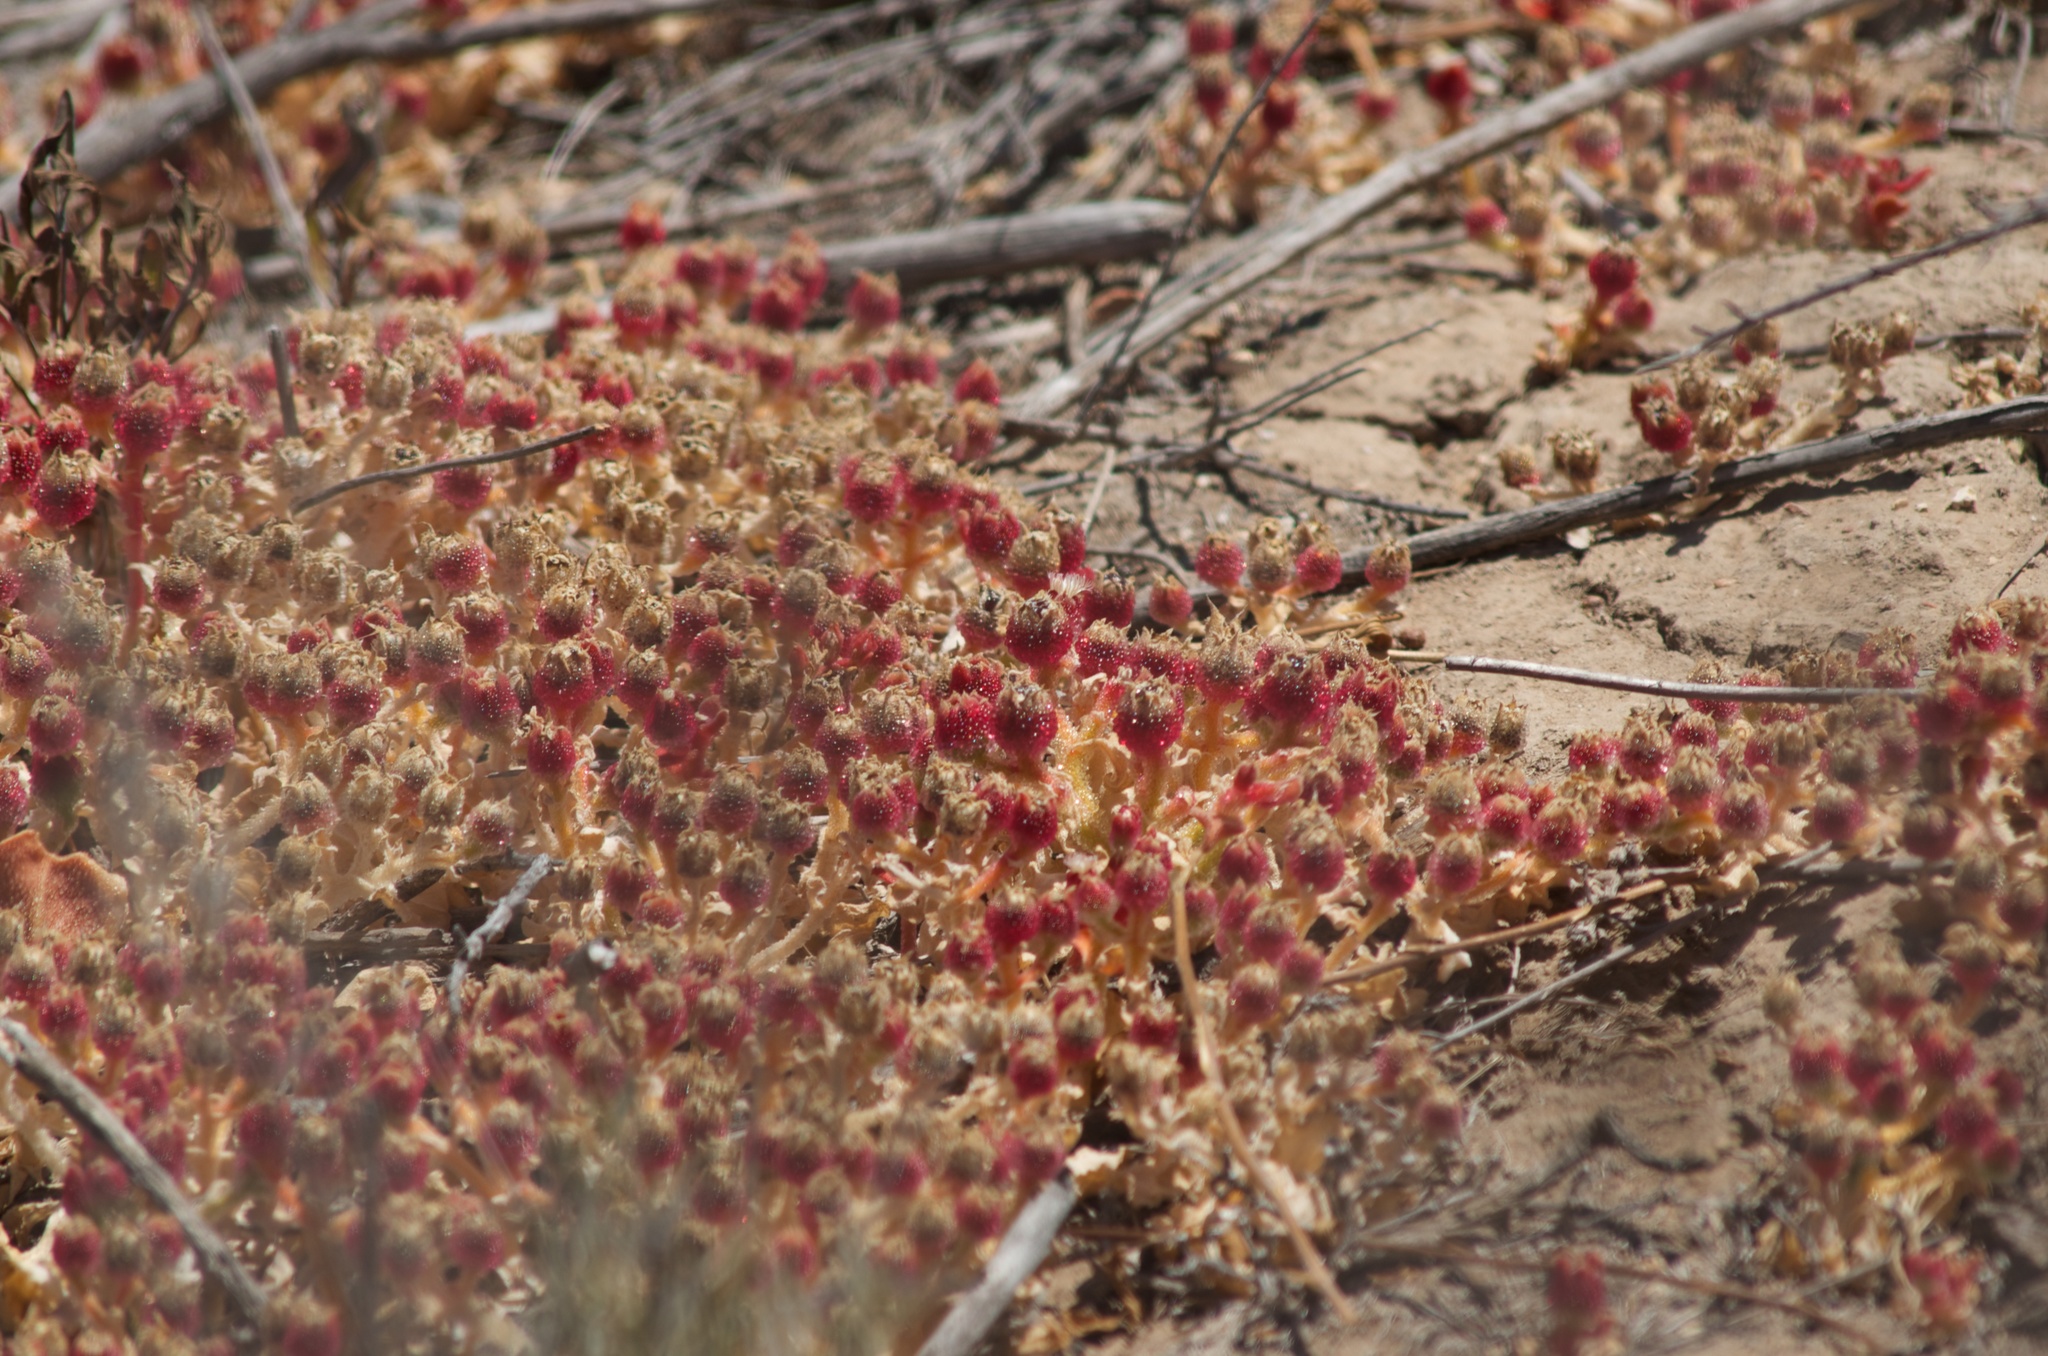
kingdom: Plantae
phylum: Tracheophyta
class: Magnoliopsida
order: Caryophyllales
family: Aizoaceae
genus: Mesembryanthemum
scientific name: Mesembryanthemum crystallinum
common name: Common iceplant
